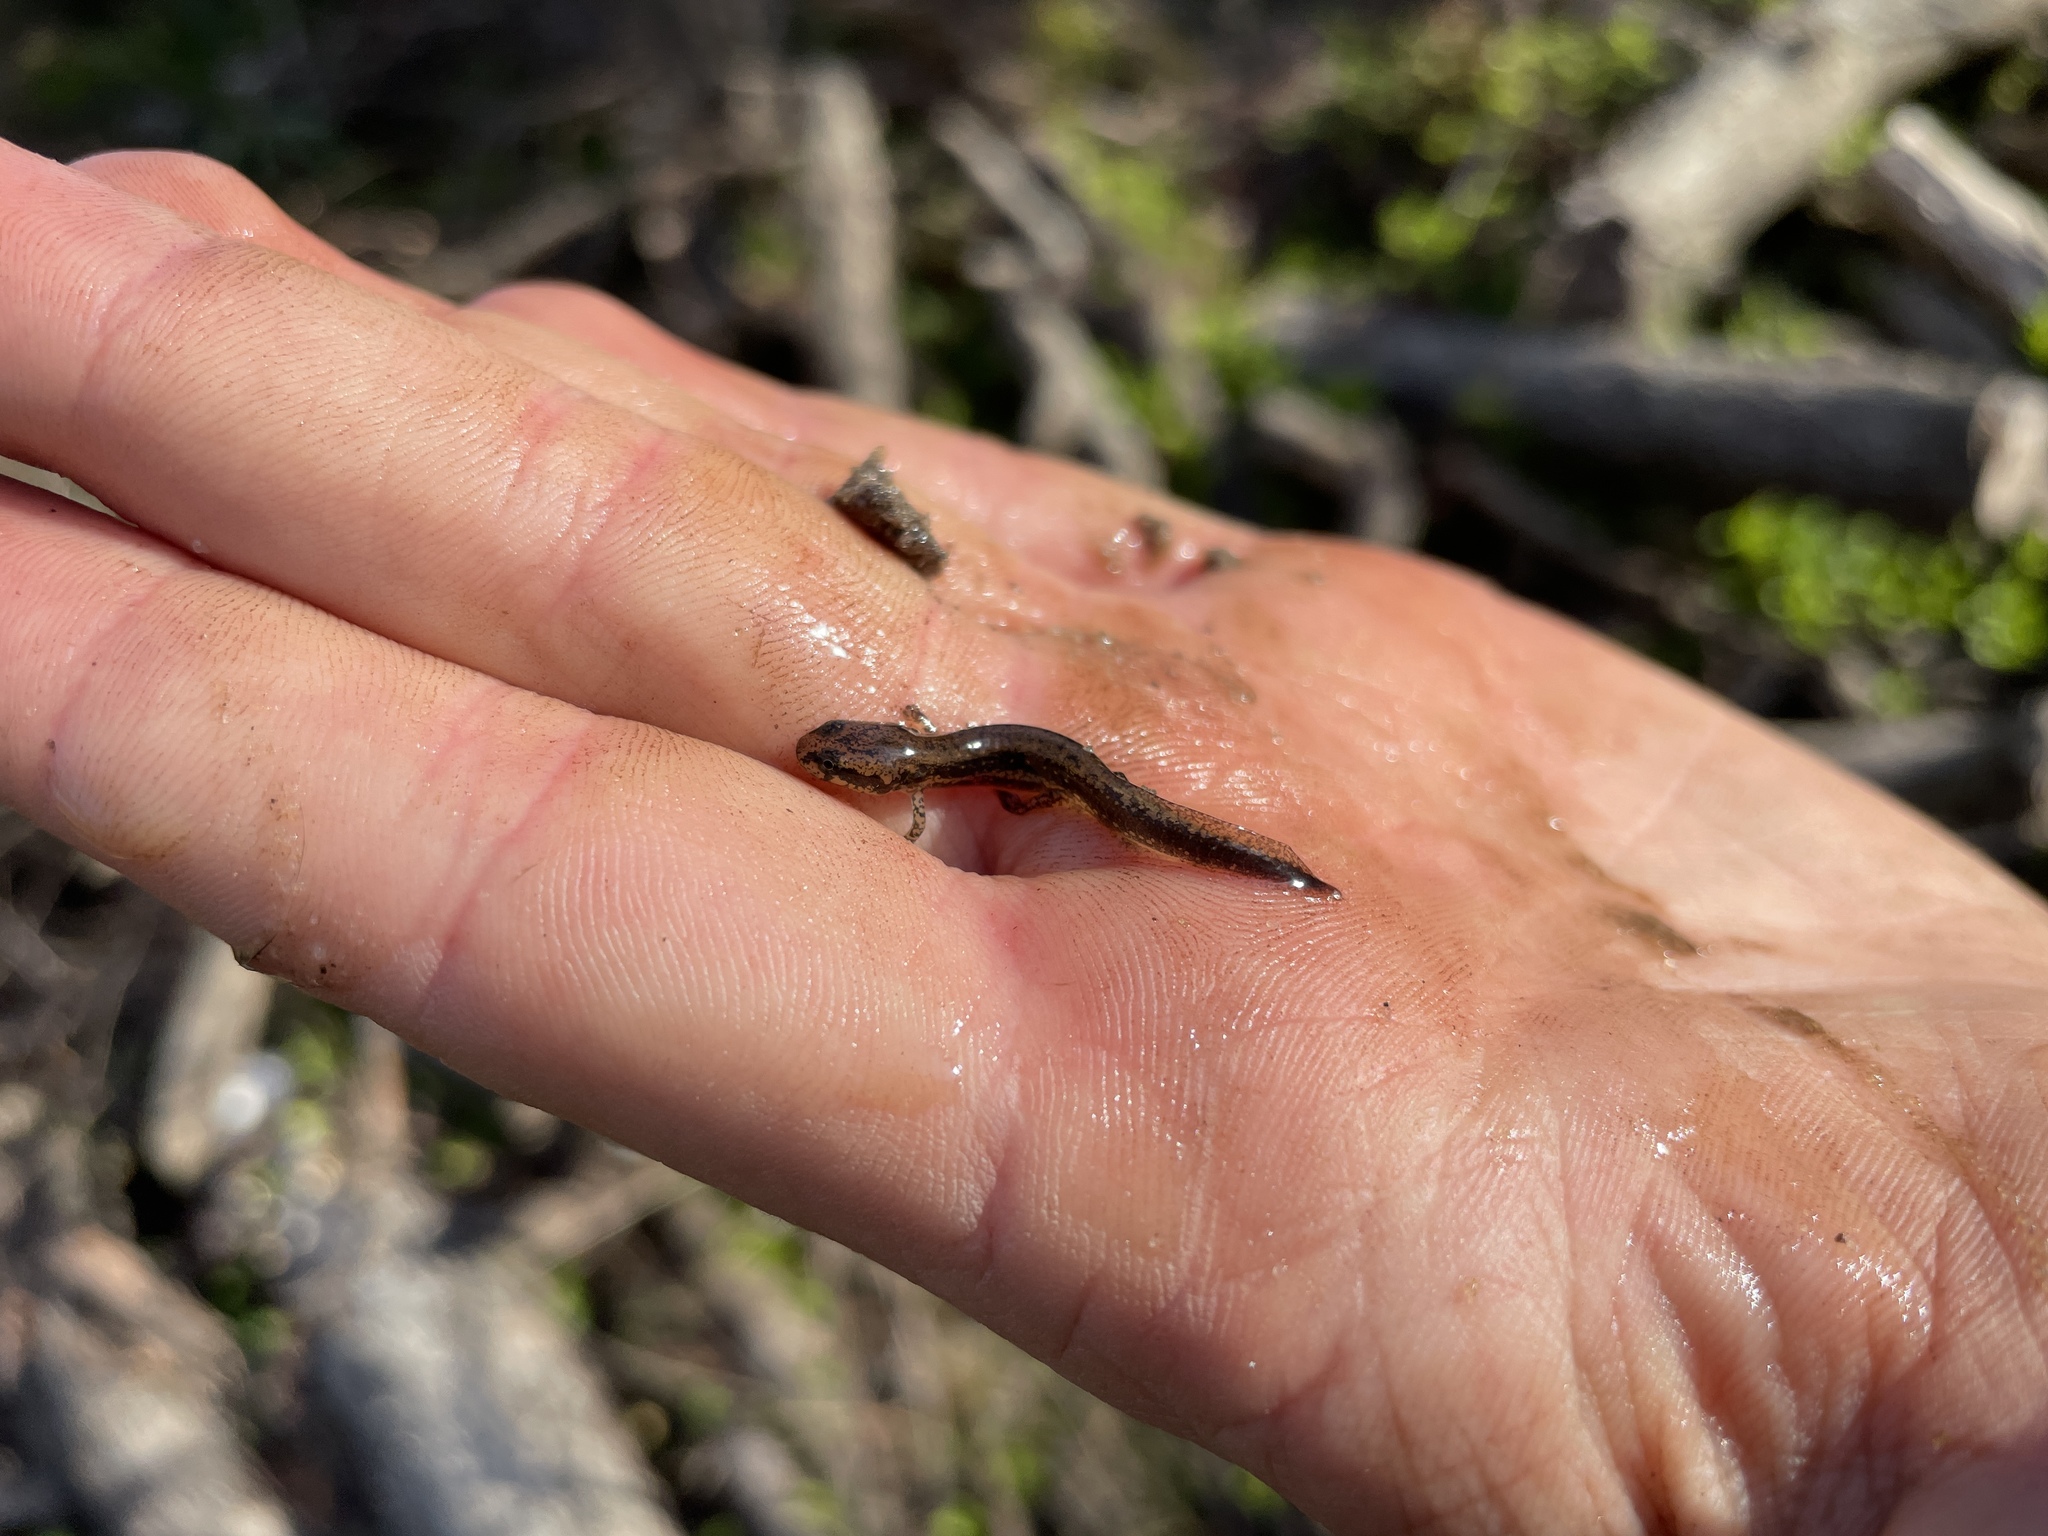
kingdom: Animalia
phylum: Chordata
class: Amphibia
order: Caudata
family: Plethodontidae
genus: Eurycea
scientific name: Eurycea guttolineata
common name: Three-lined salamander
